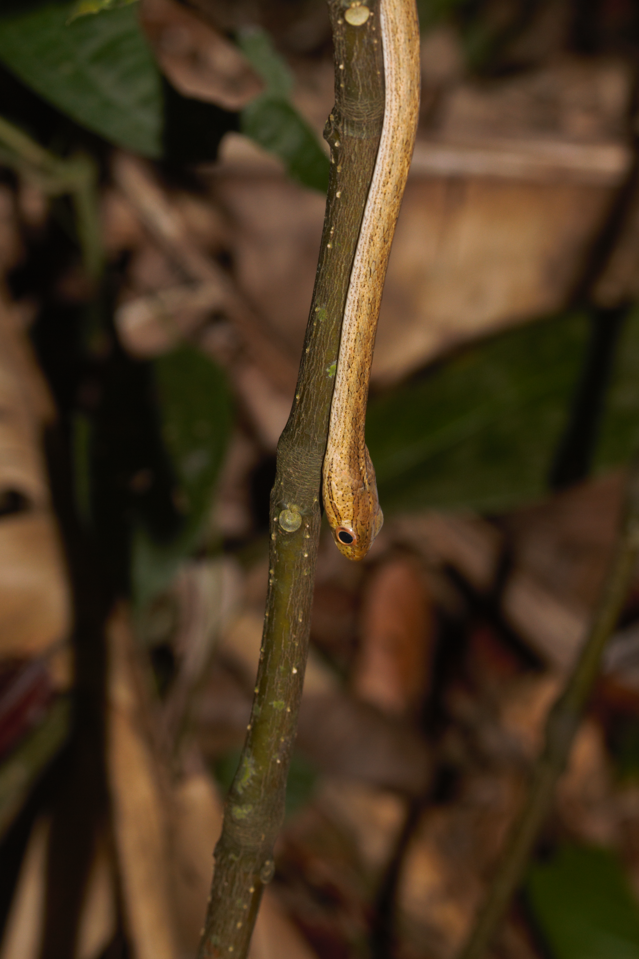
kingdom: Animalia
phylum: Chordata
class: Squamata
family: Colubridae
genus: Thamnodynastes
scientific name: Thamnodynastes pallidus
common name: Amazon coastal house snake
